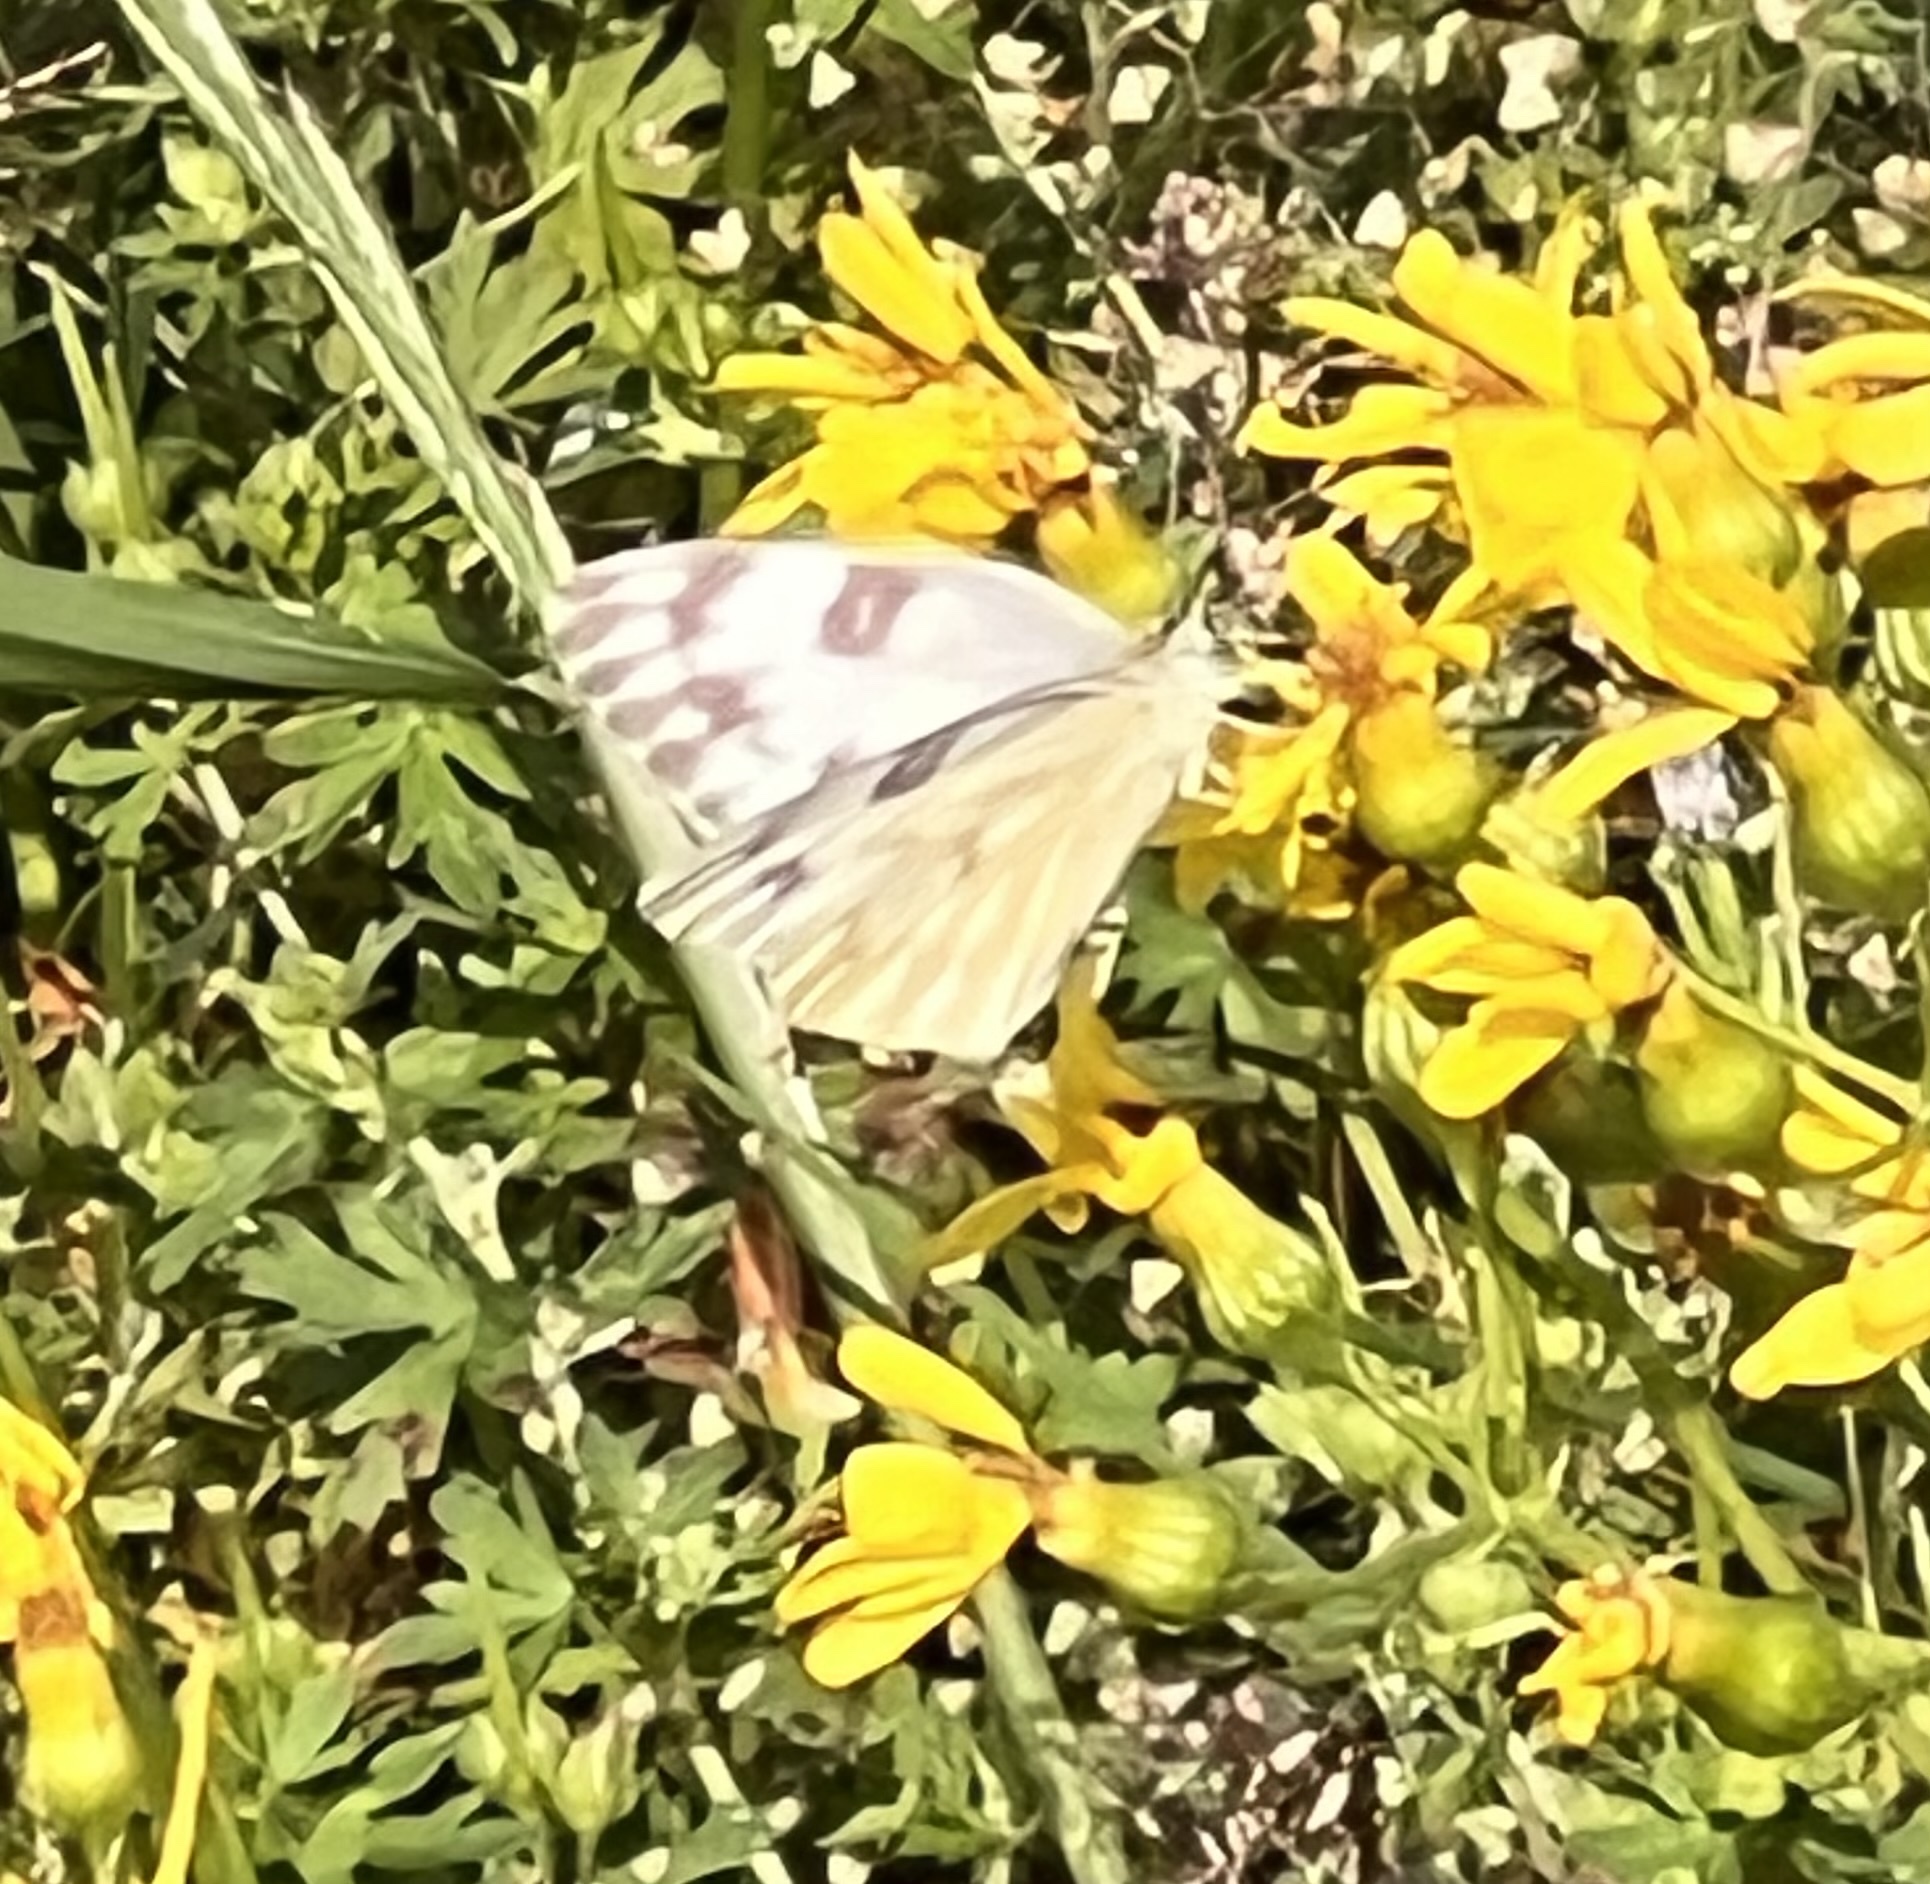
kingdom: Animalia
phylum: Arthropoda
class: Insecta
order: Lepidoptera
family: Pieridae
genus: Pontia
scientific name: Pontia protodice
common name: Checkered white
